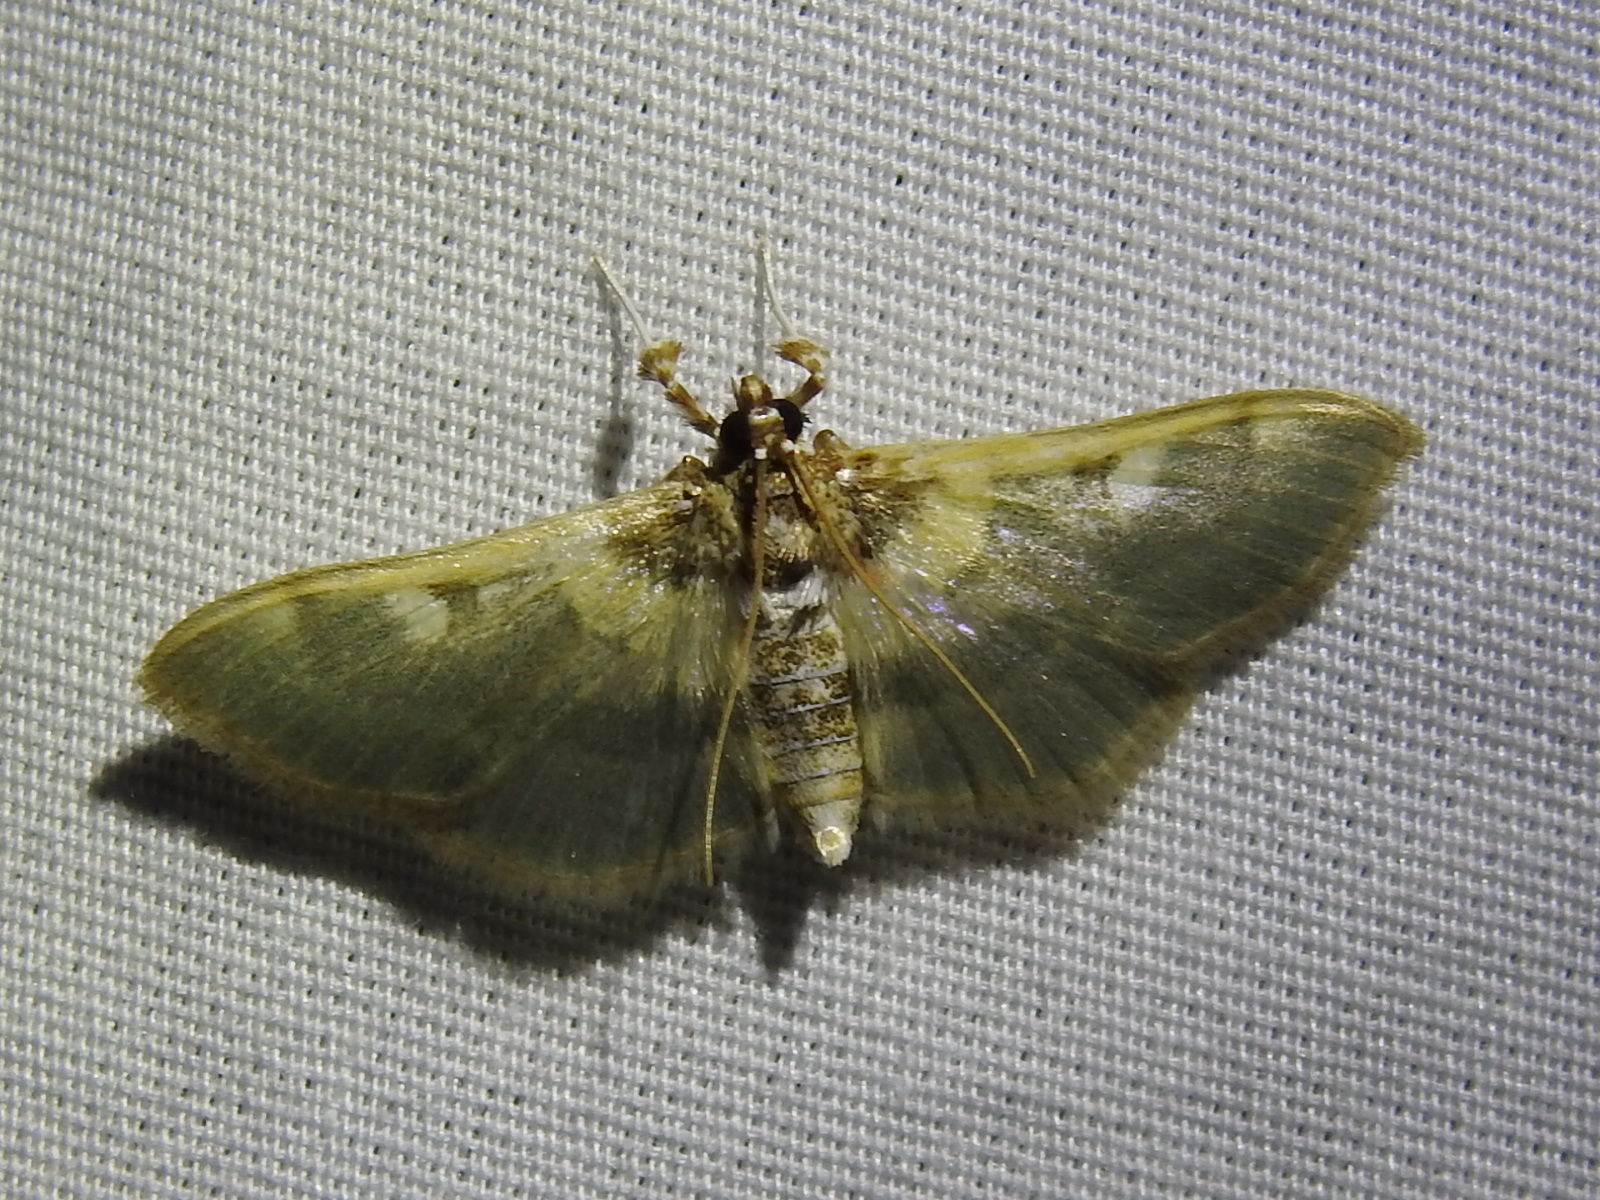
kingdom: Animalia
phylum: Arthropoda
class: Insecta
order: Lepidoptera
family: Crambidae
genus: Apilocrocis
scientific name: Apilocrocis brumalis
